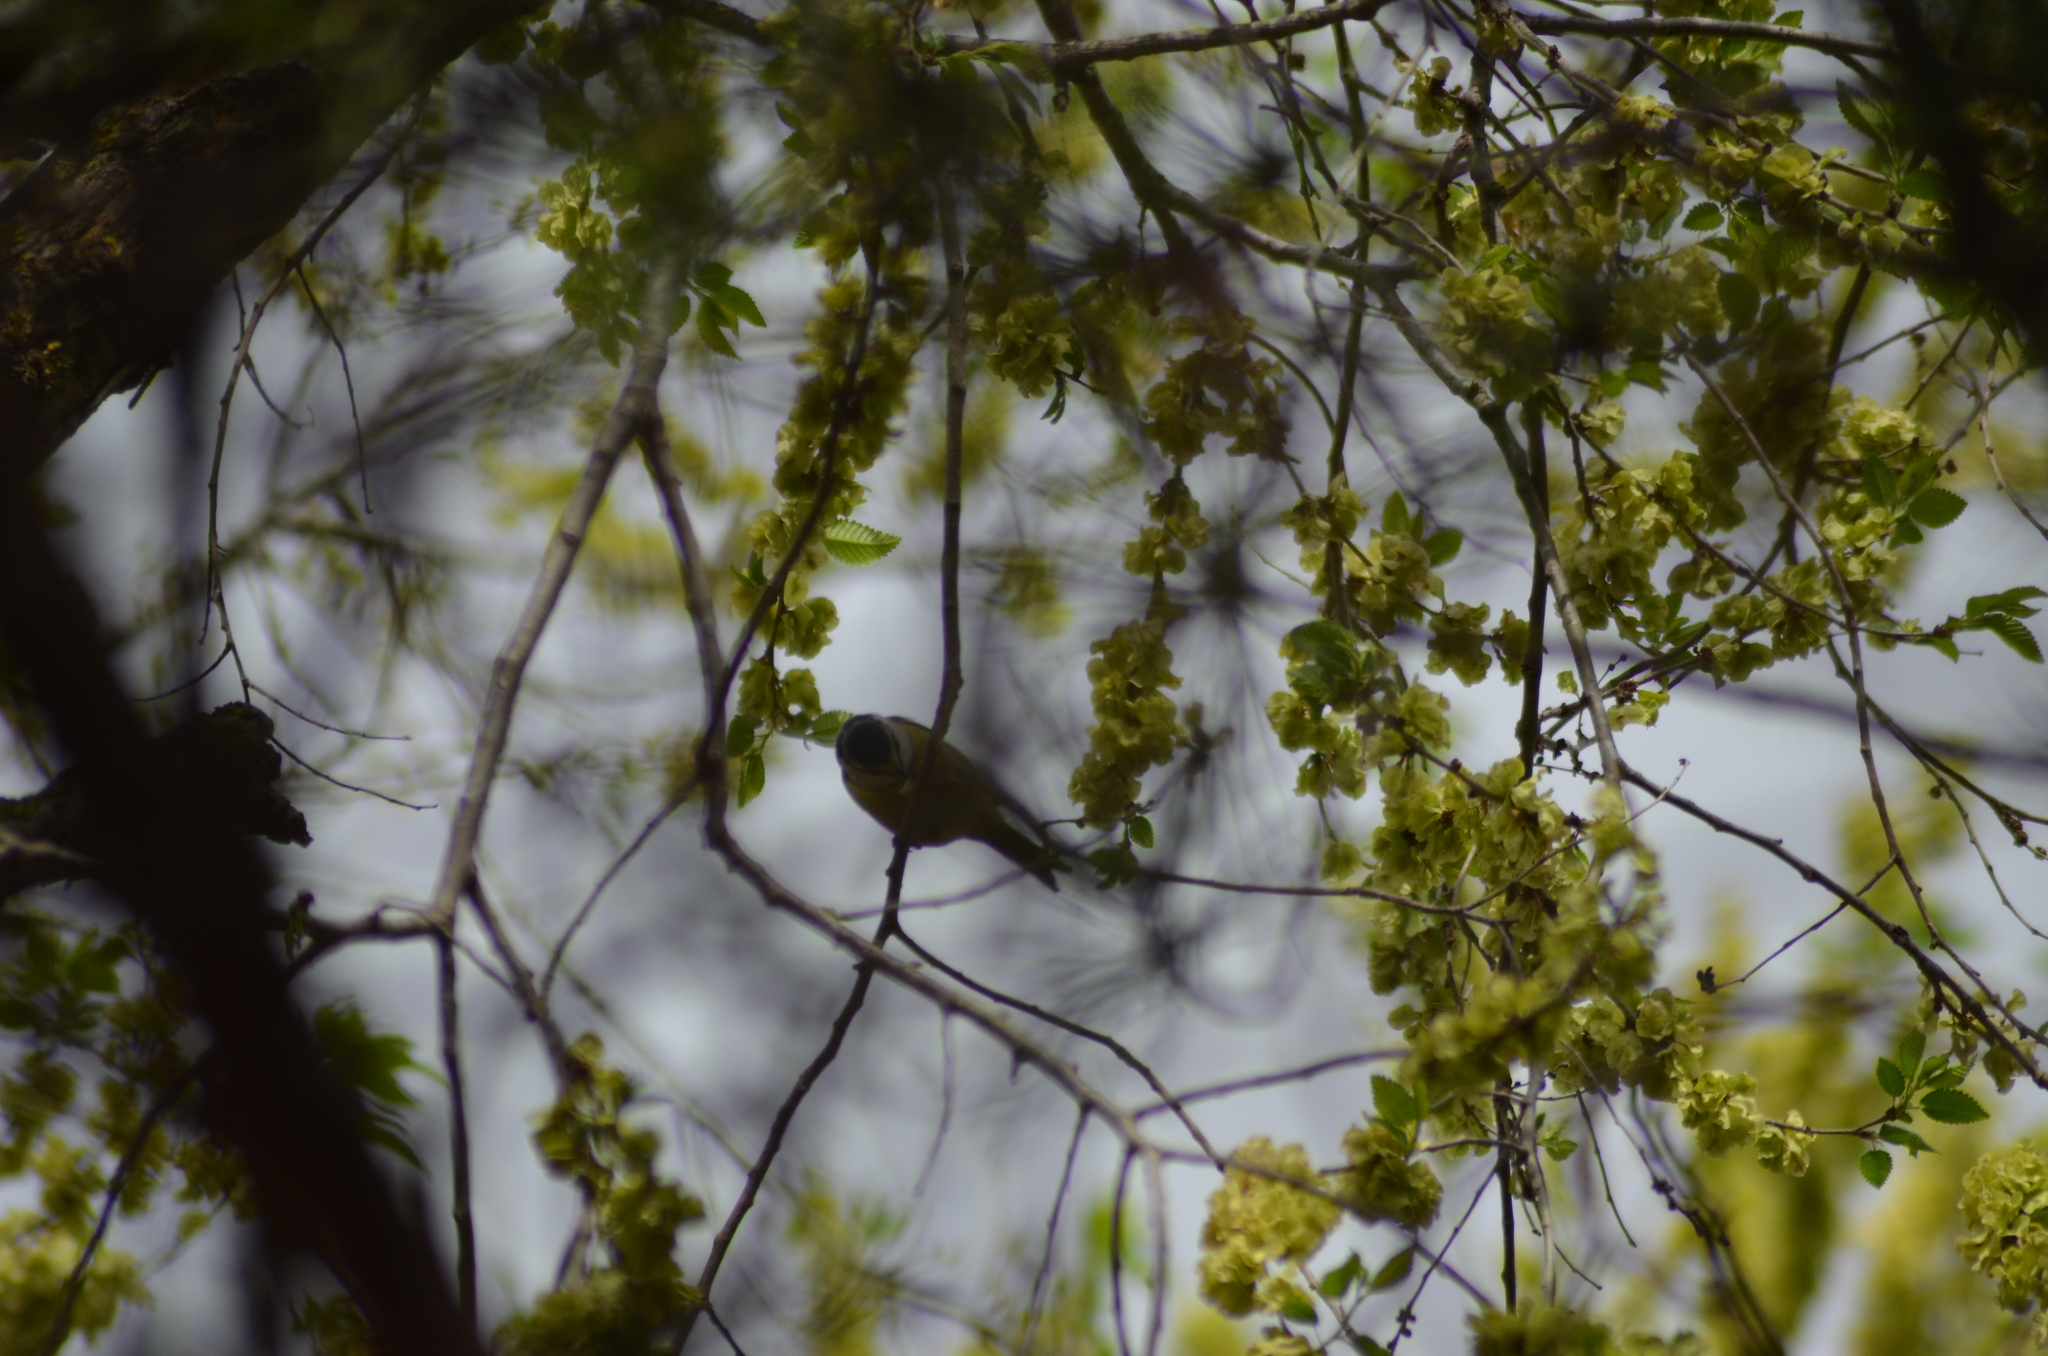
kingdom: Animalia
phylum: Chordata
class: Aves
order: Passeriformes
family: Paridae
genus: Cyanistes
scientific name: Cyanistes caeruleus
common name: Eurasian blue tit
